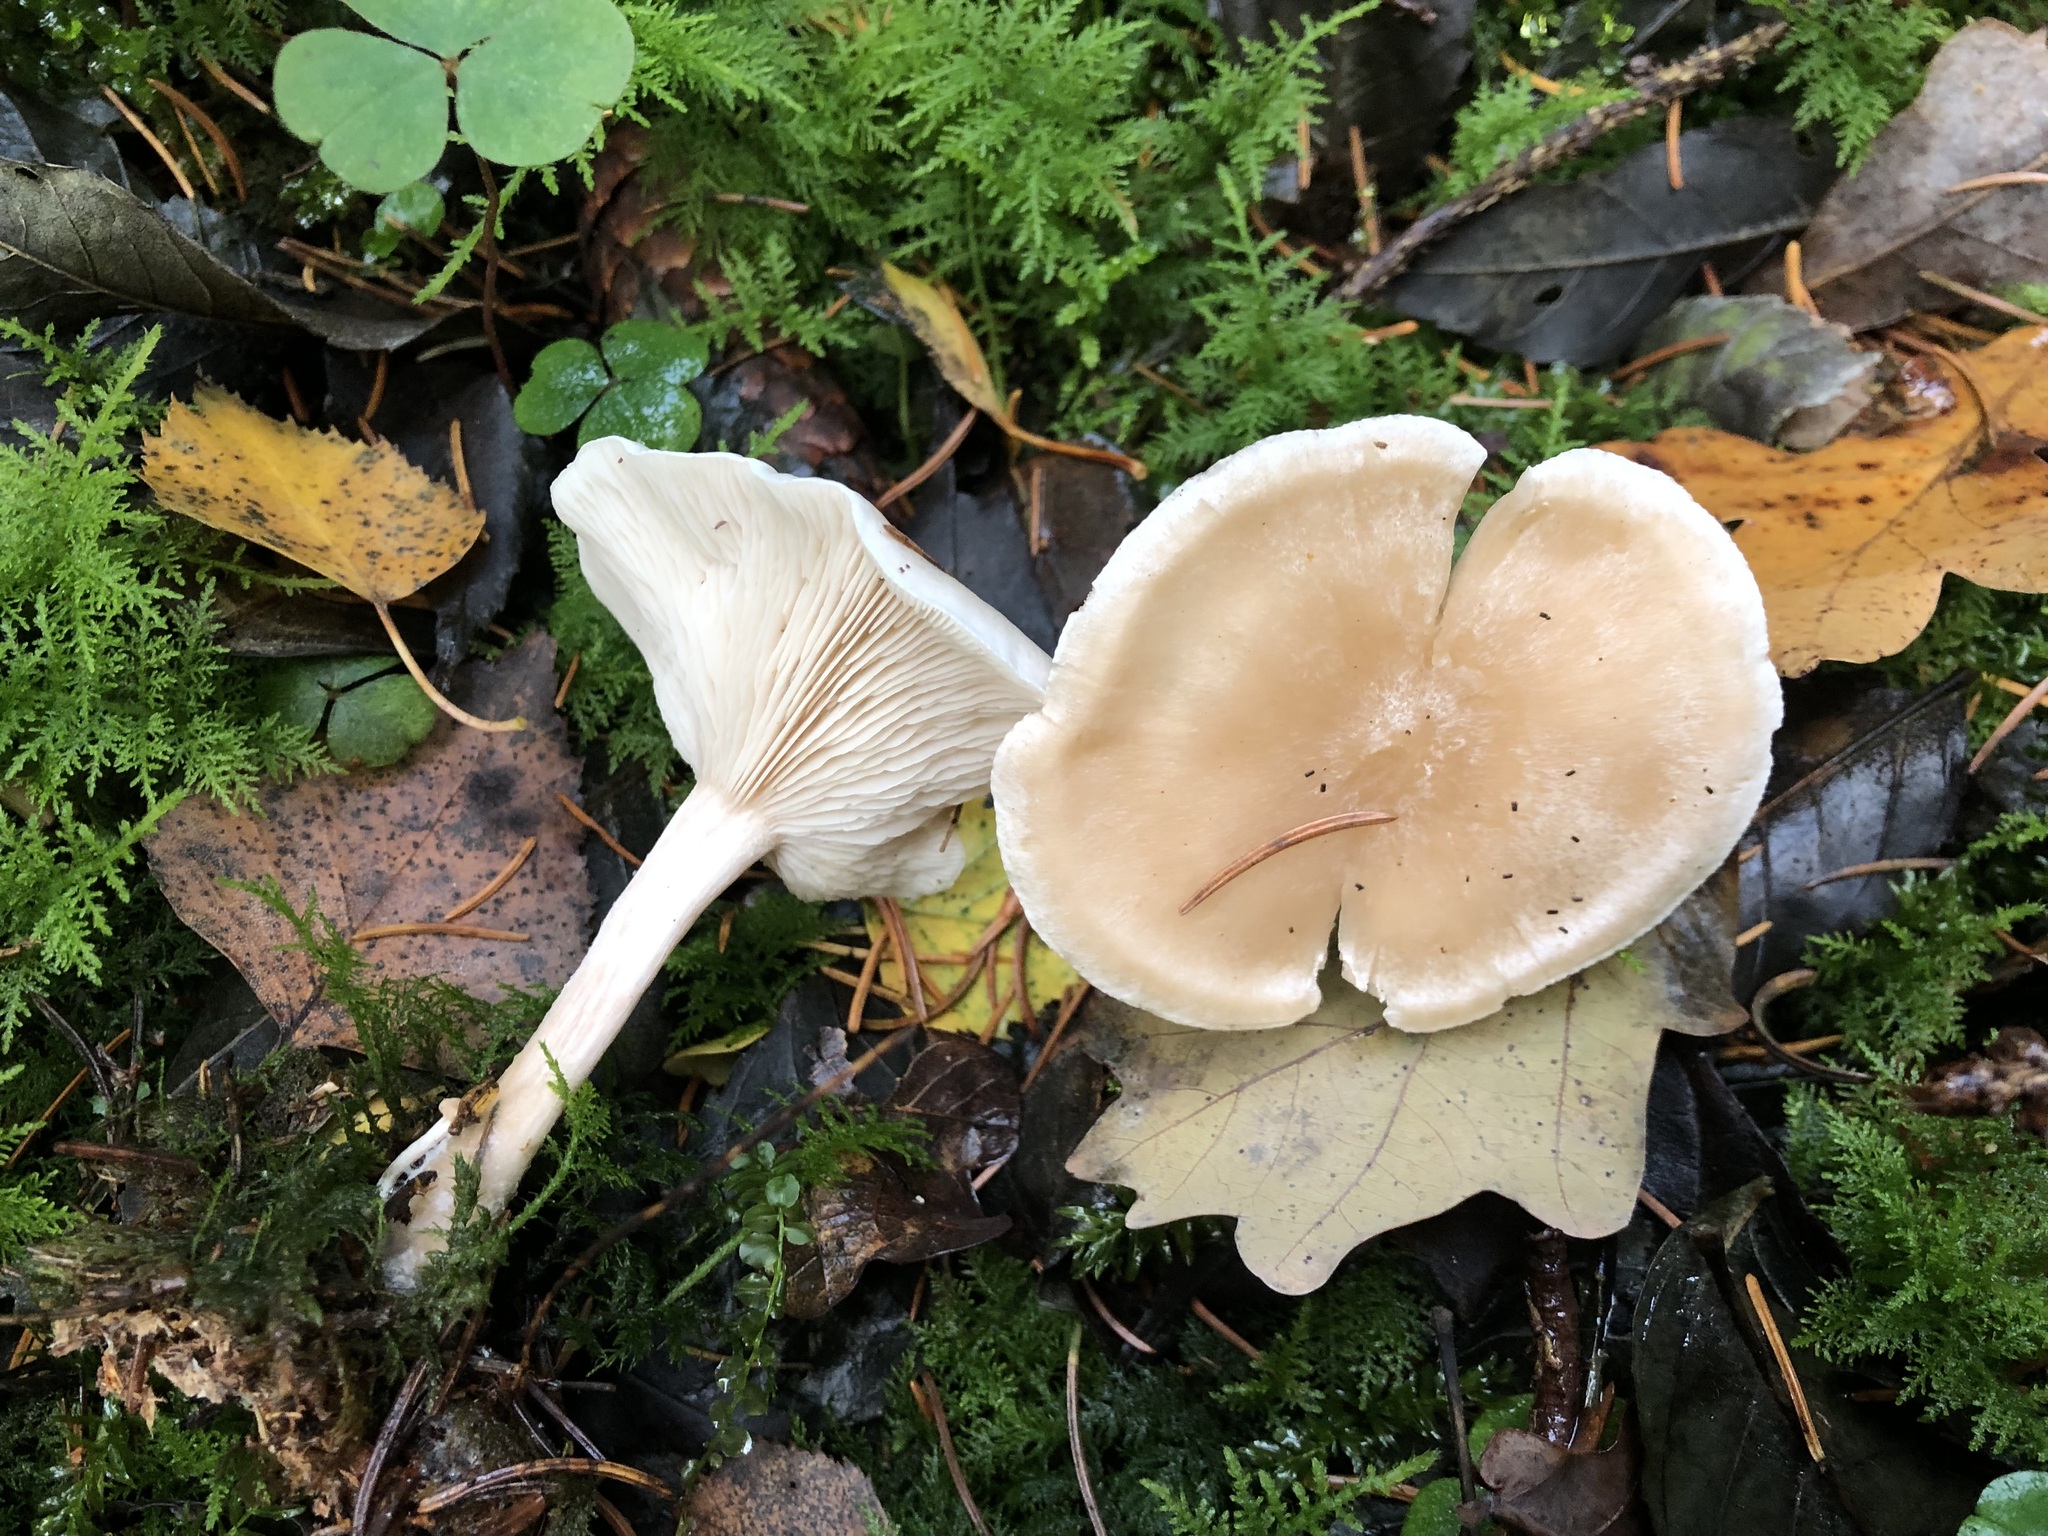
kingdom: Fungi
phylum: Basidiomycota
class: Agaricomycetes
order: Agaricales
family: Tricholomataceae
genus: Collybia
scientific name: Collybia phylladophila
